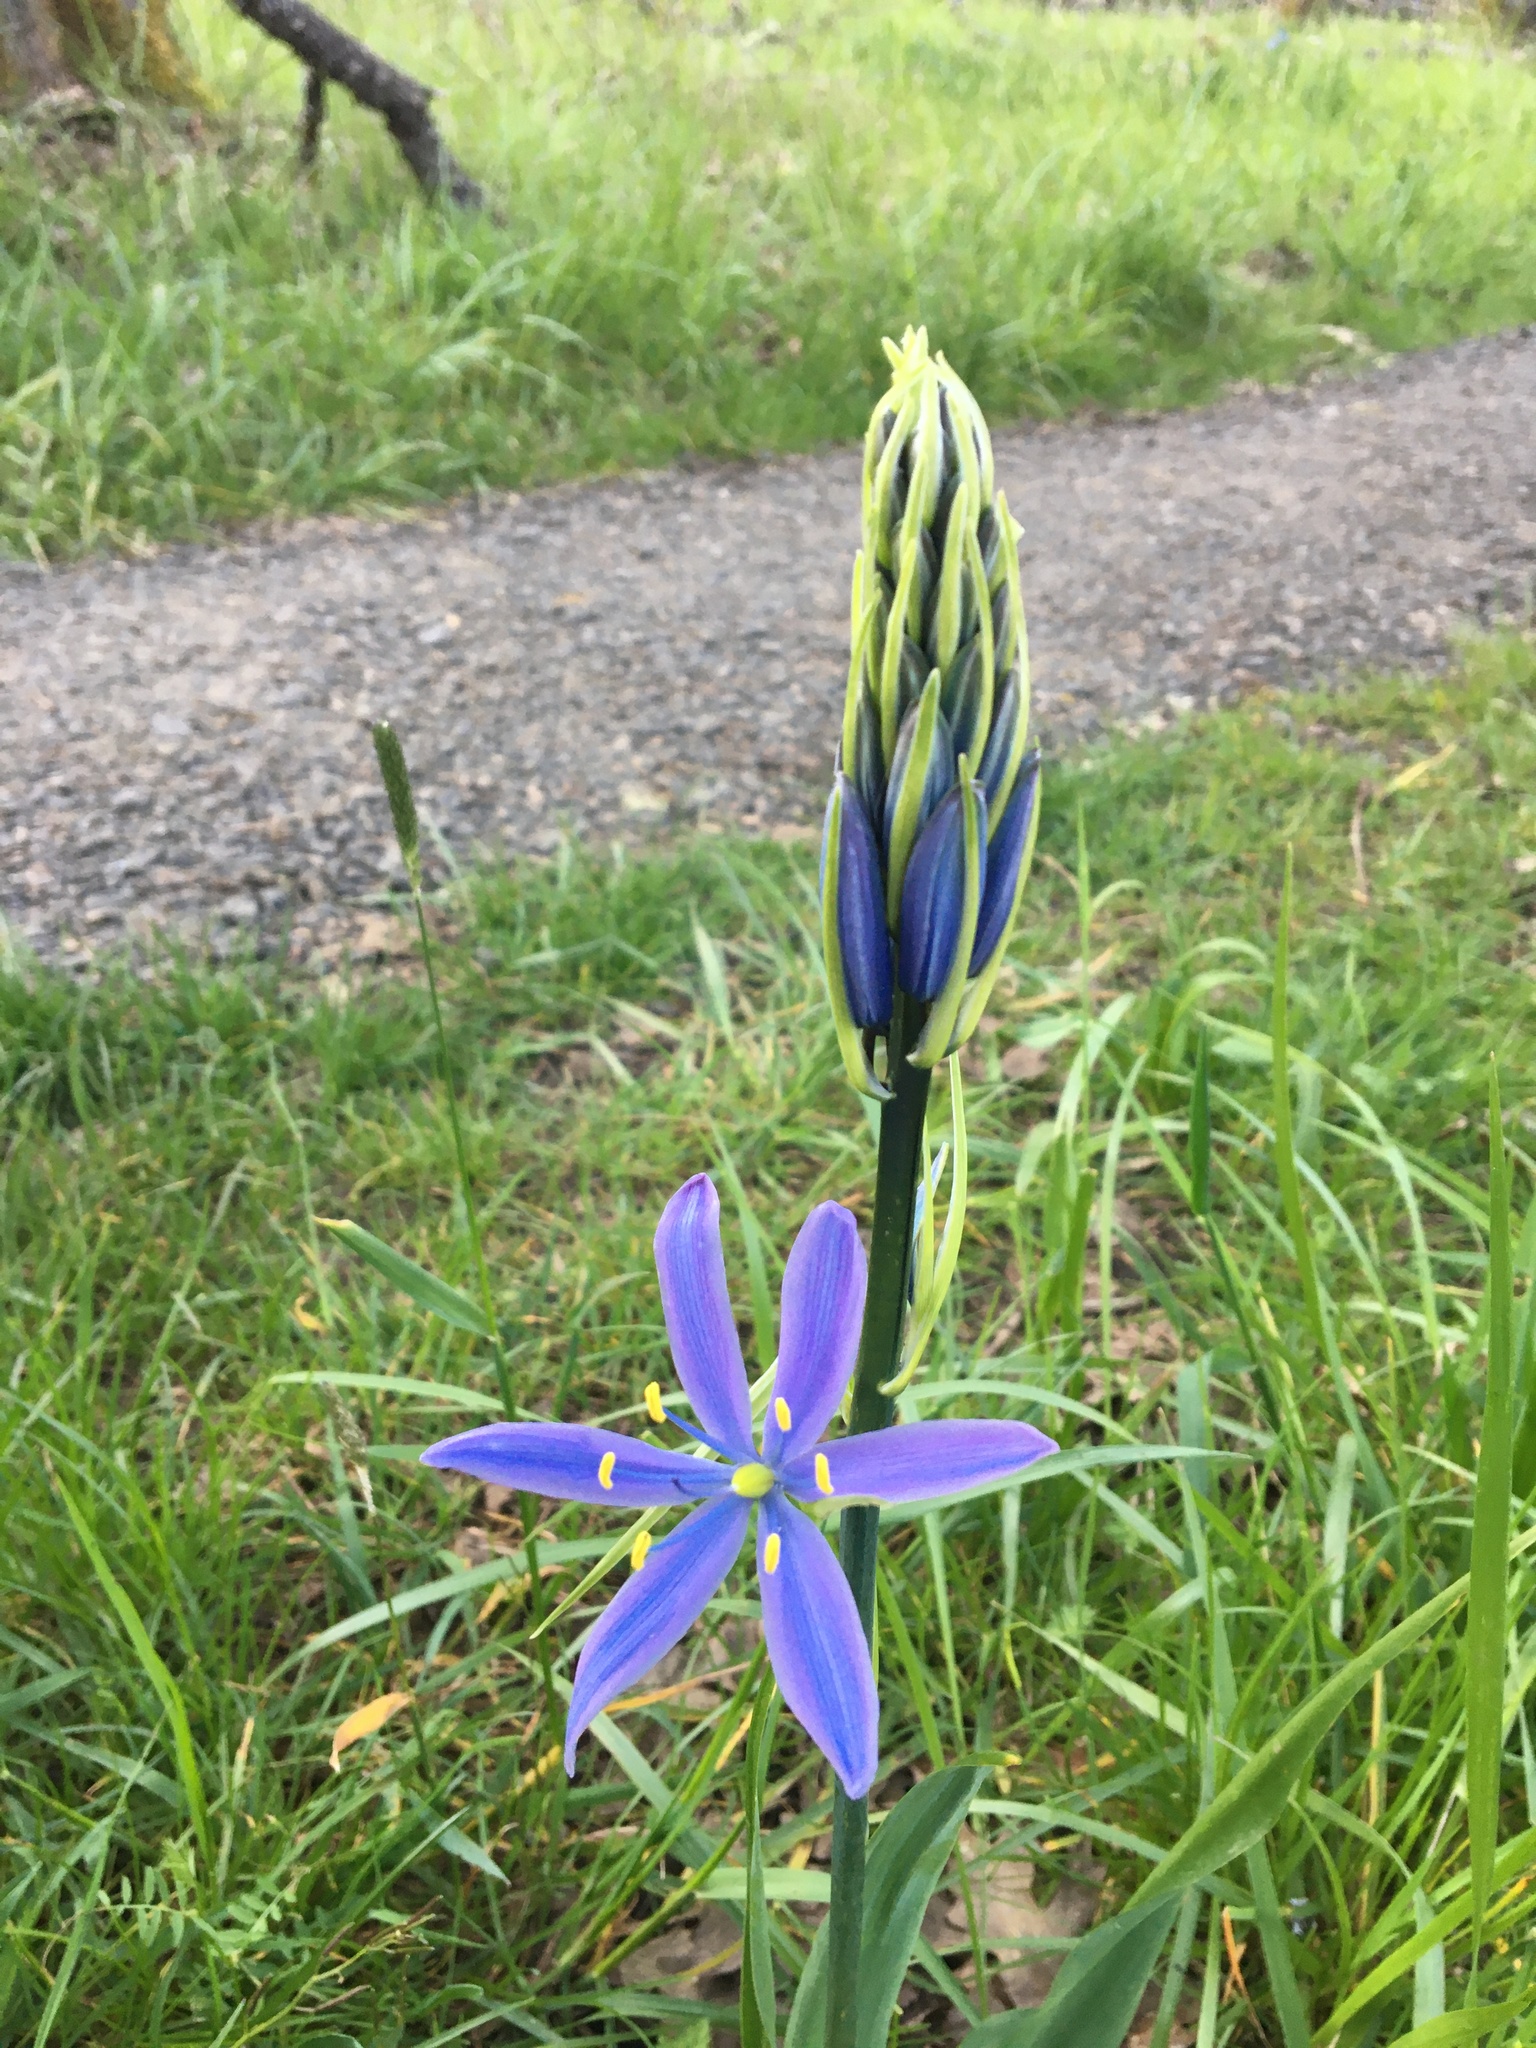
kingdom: Plantae
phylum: Tracheophyta
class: Liliopsida
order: Asparagales
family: Asparagaceae
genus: Camassia
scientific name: Camassia leichtlinii
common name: Leichtlin's camas
